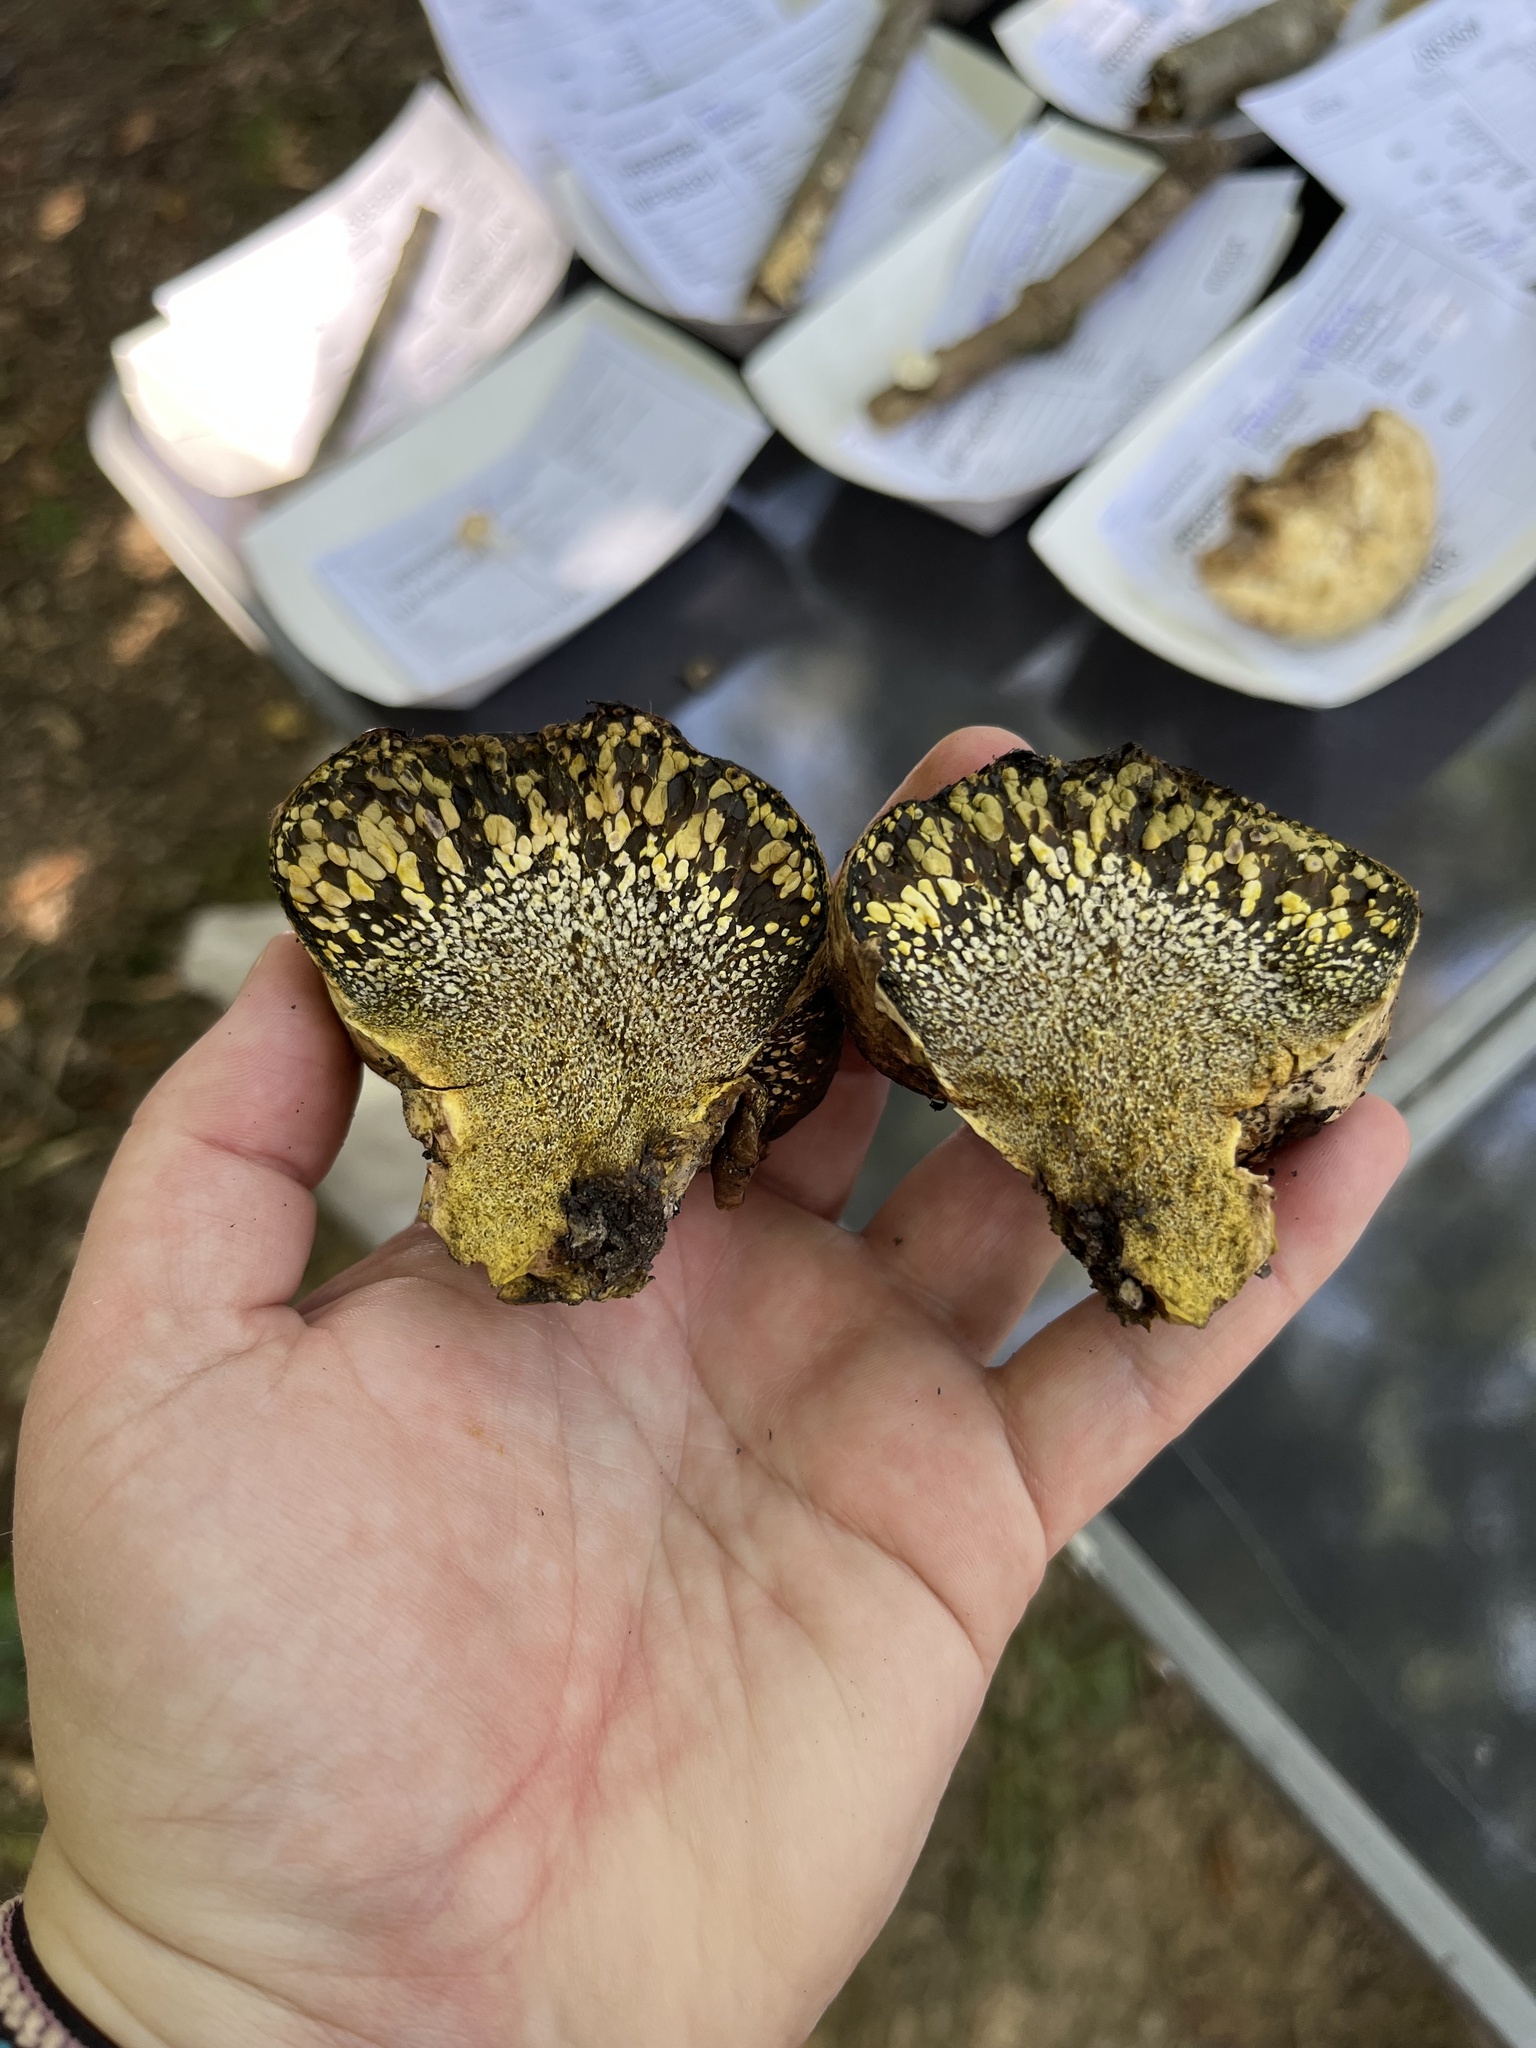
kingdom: Fungi
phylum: Basidiomycota
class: Agaricomycetes
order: Boletales
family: Sclerodermataceae
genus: Pisolithus
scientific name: Pisolithus arhizus
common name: Dyeball
